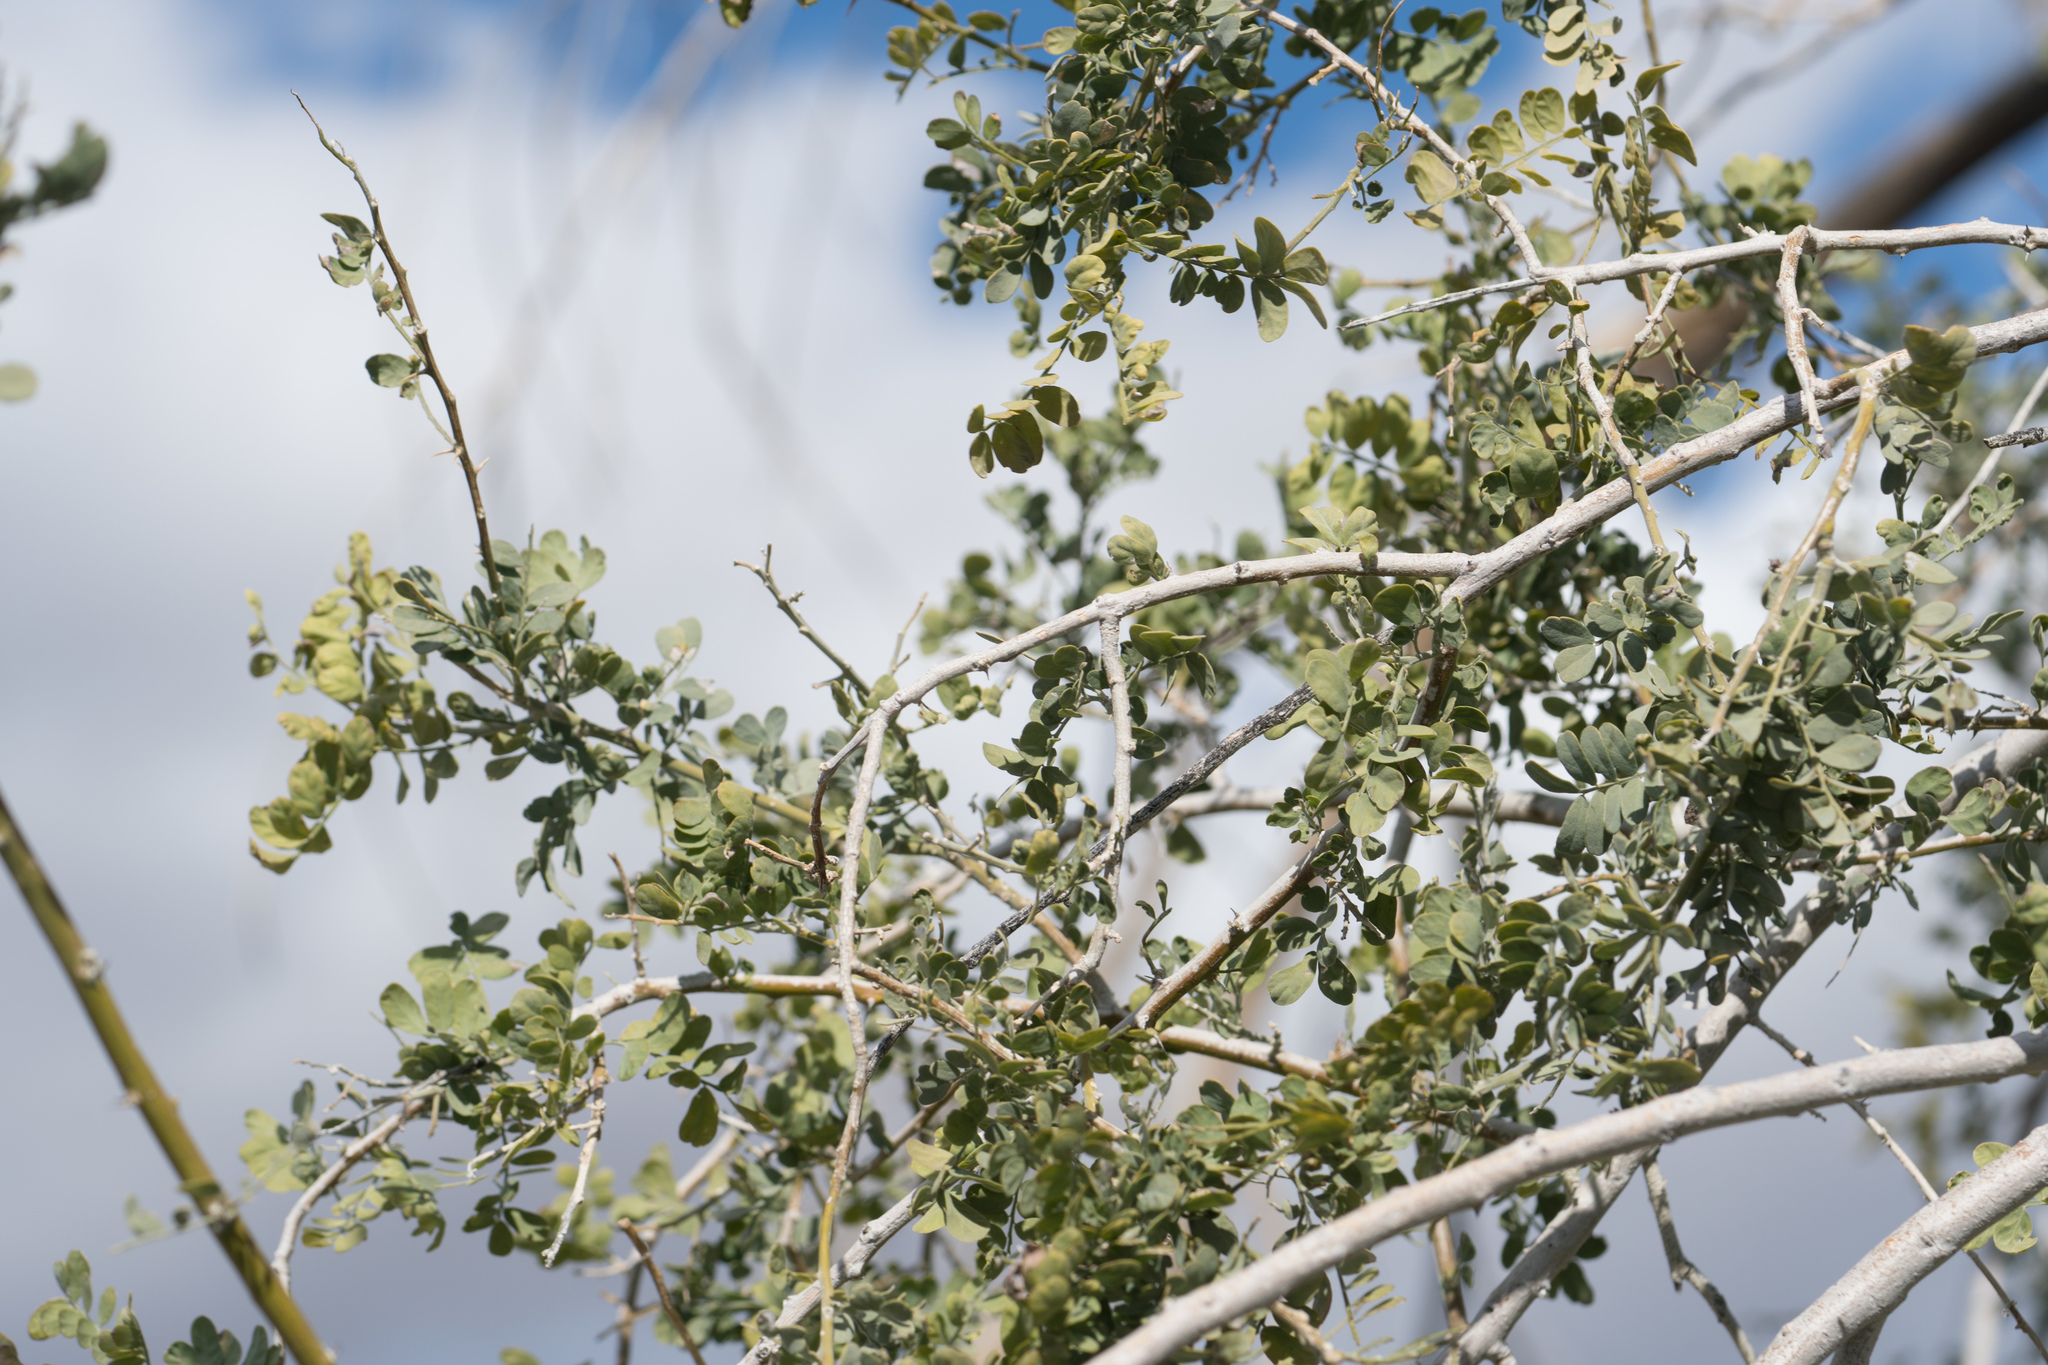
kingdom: Plantae
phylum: Tracheophyta
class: Magnoliopsida
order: Fabales
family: Fabaceae
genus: Olneya
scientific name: Olneya tesota
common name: Desert ironwood
